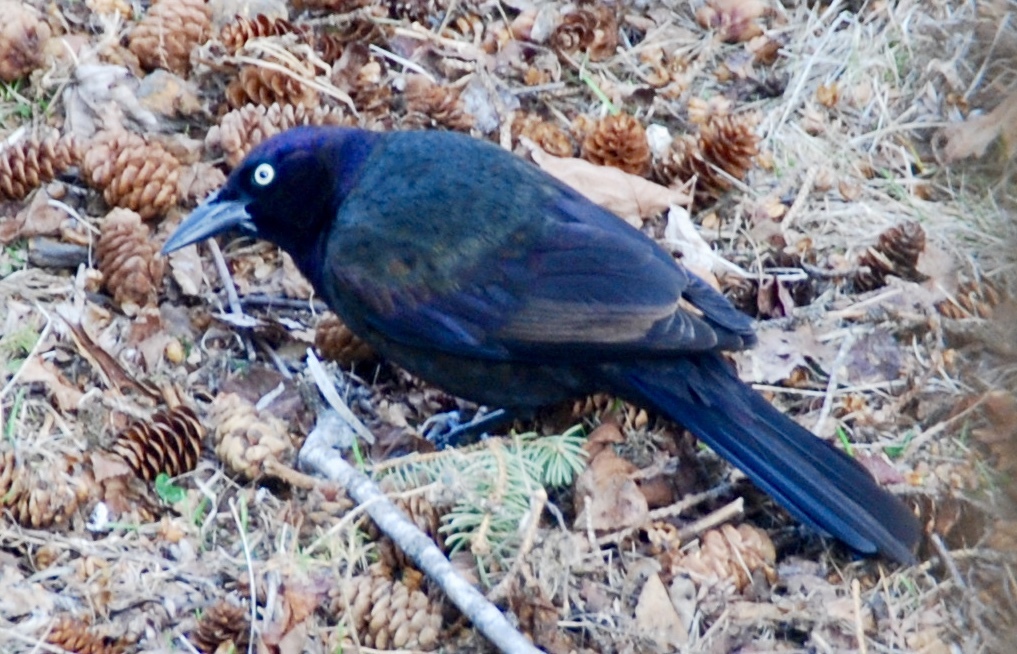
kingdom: Animalia
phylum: Chordata
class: Aves
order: Passeriformes
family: Icteridae
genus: Quiscalus
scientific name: Quiscalus quiscula
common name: Common grackle
